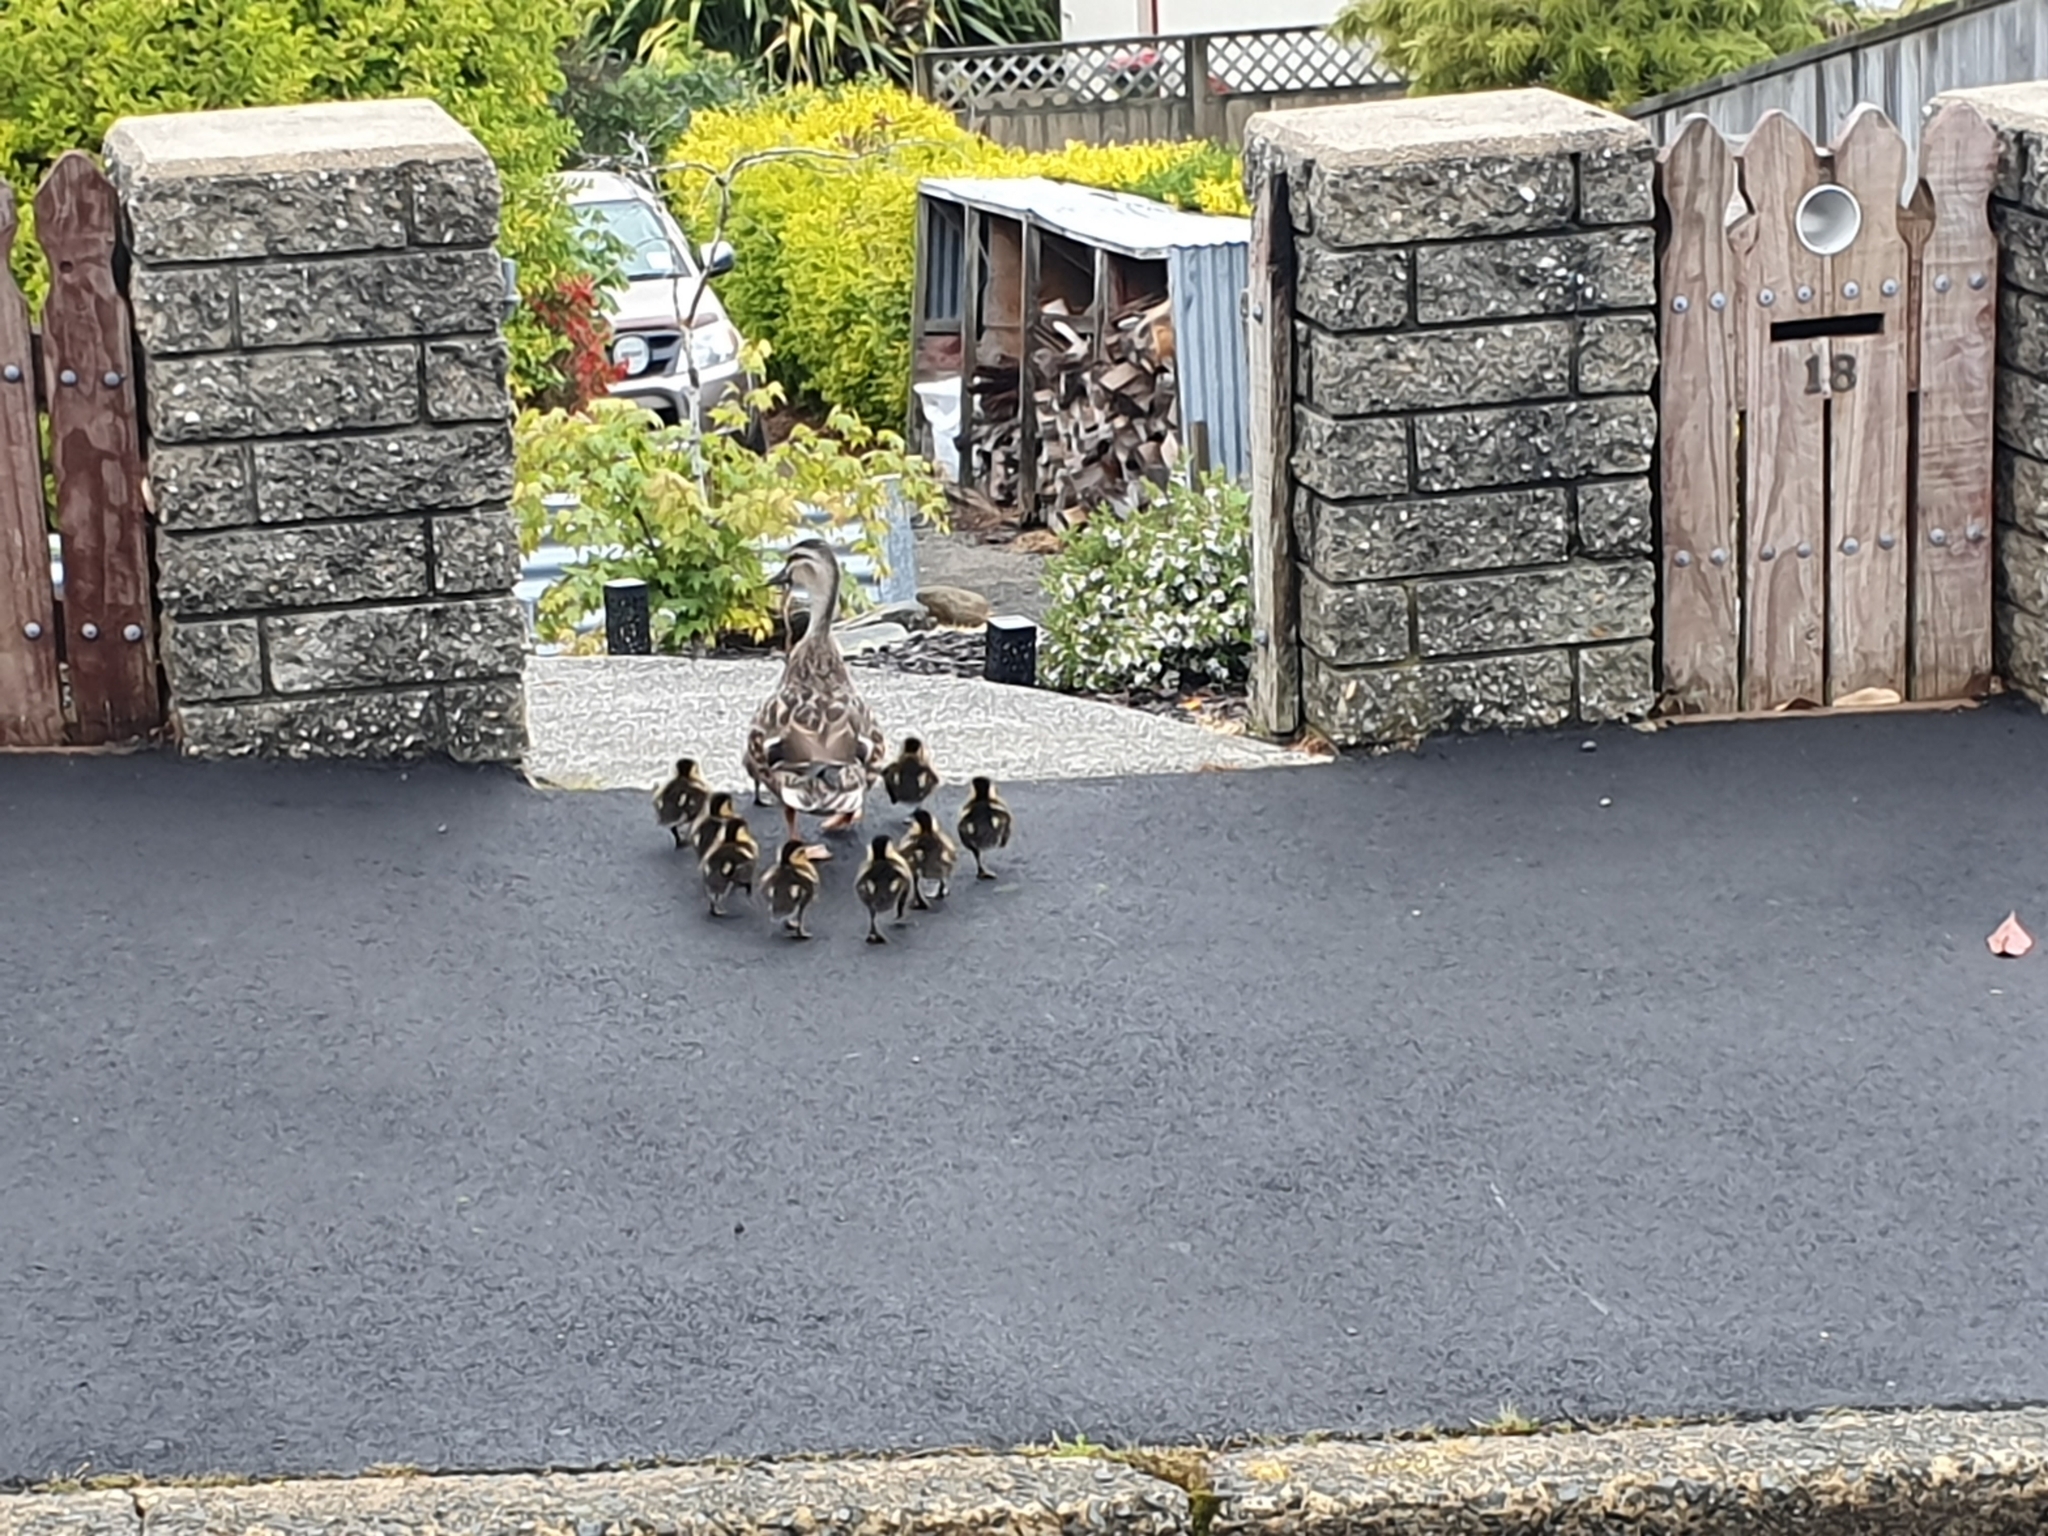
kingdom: Animalia
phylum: Chordata
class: Aves
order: Anseriformes
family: Anatidae
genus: Anas
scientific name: Anas
